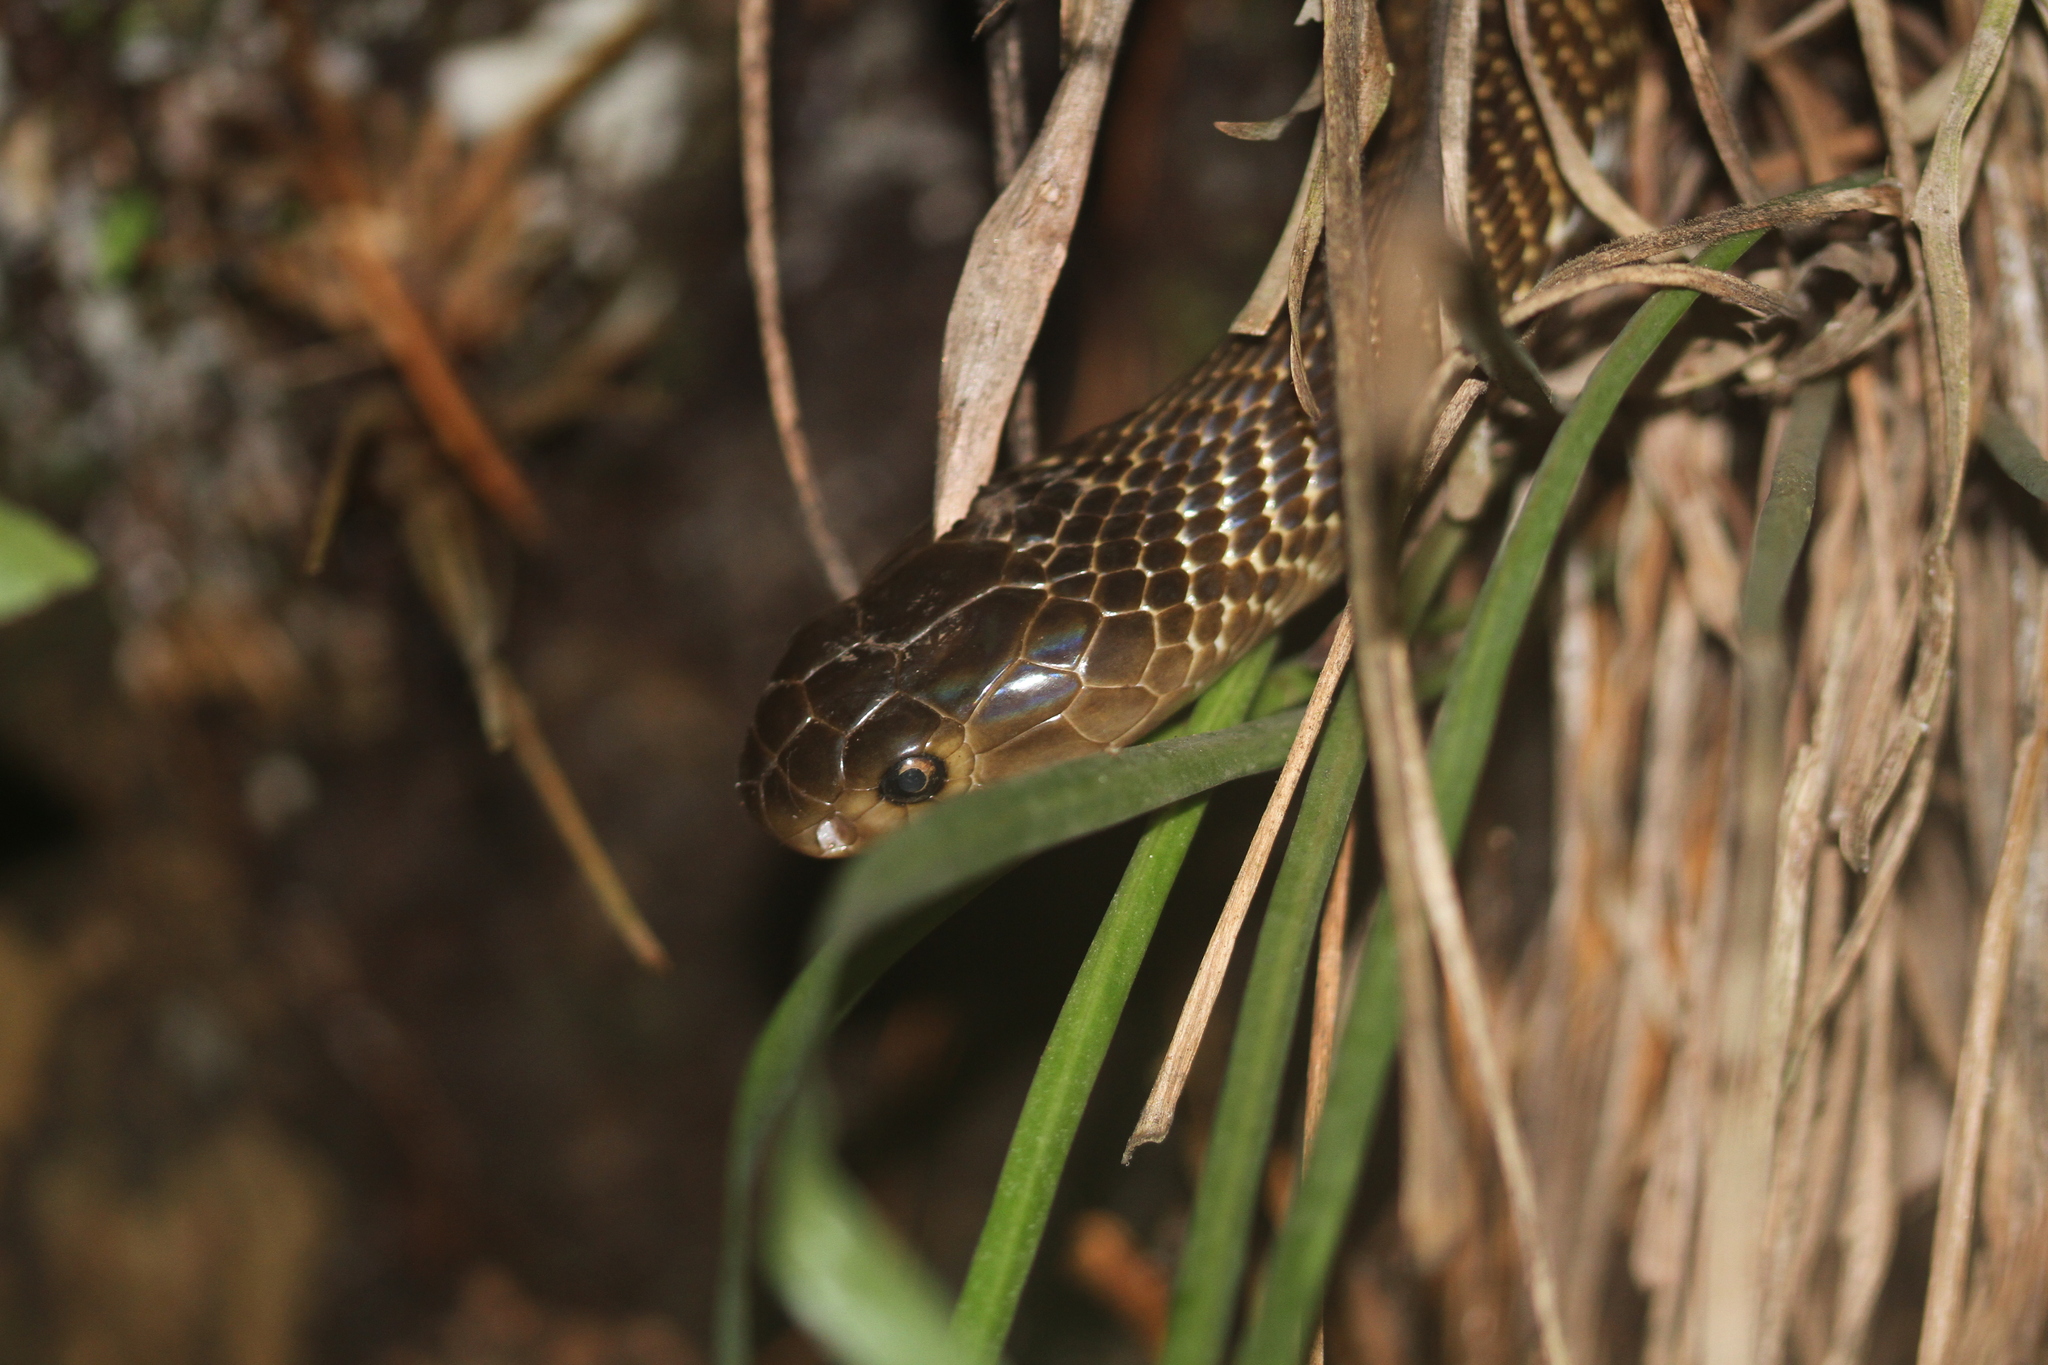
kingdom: Animalia
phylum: Chordata
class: Squamata
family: Elapidae
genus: Naja
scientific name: Naja sumatrana
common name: Equatorial spitting cobra
